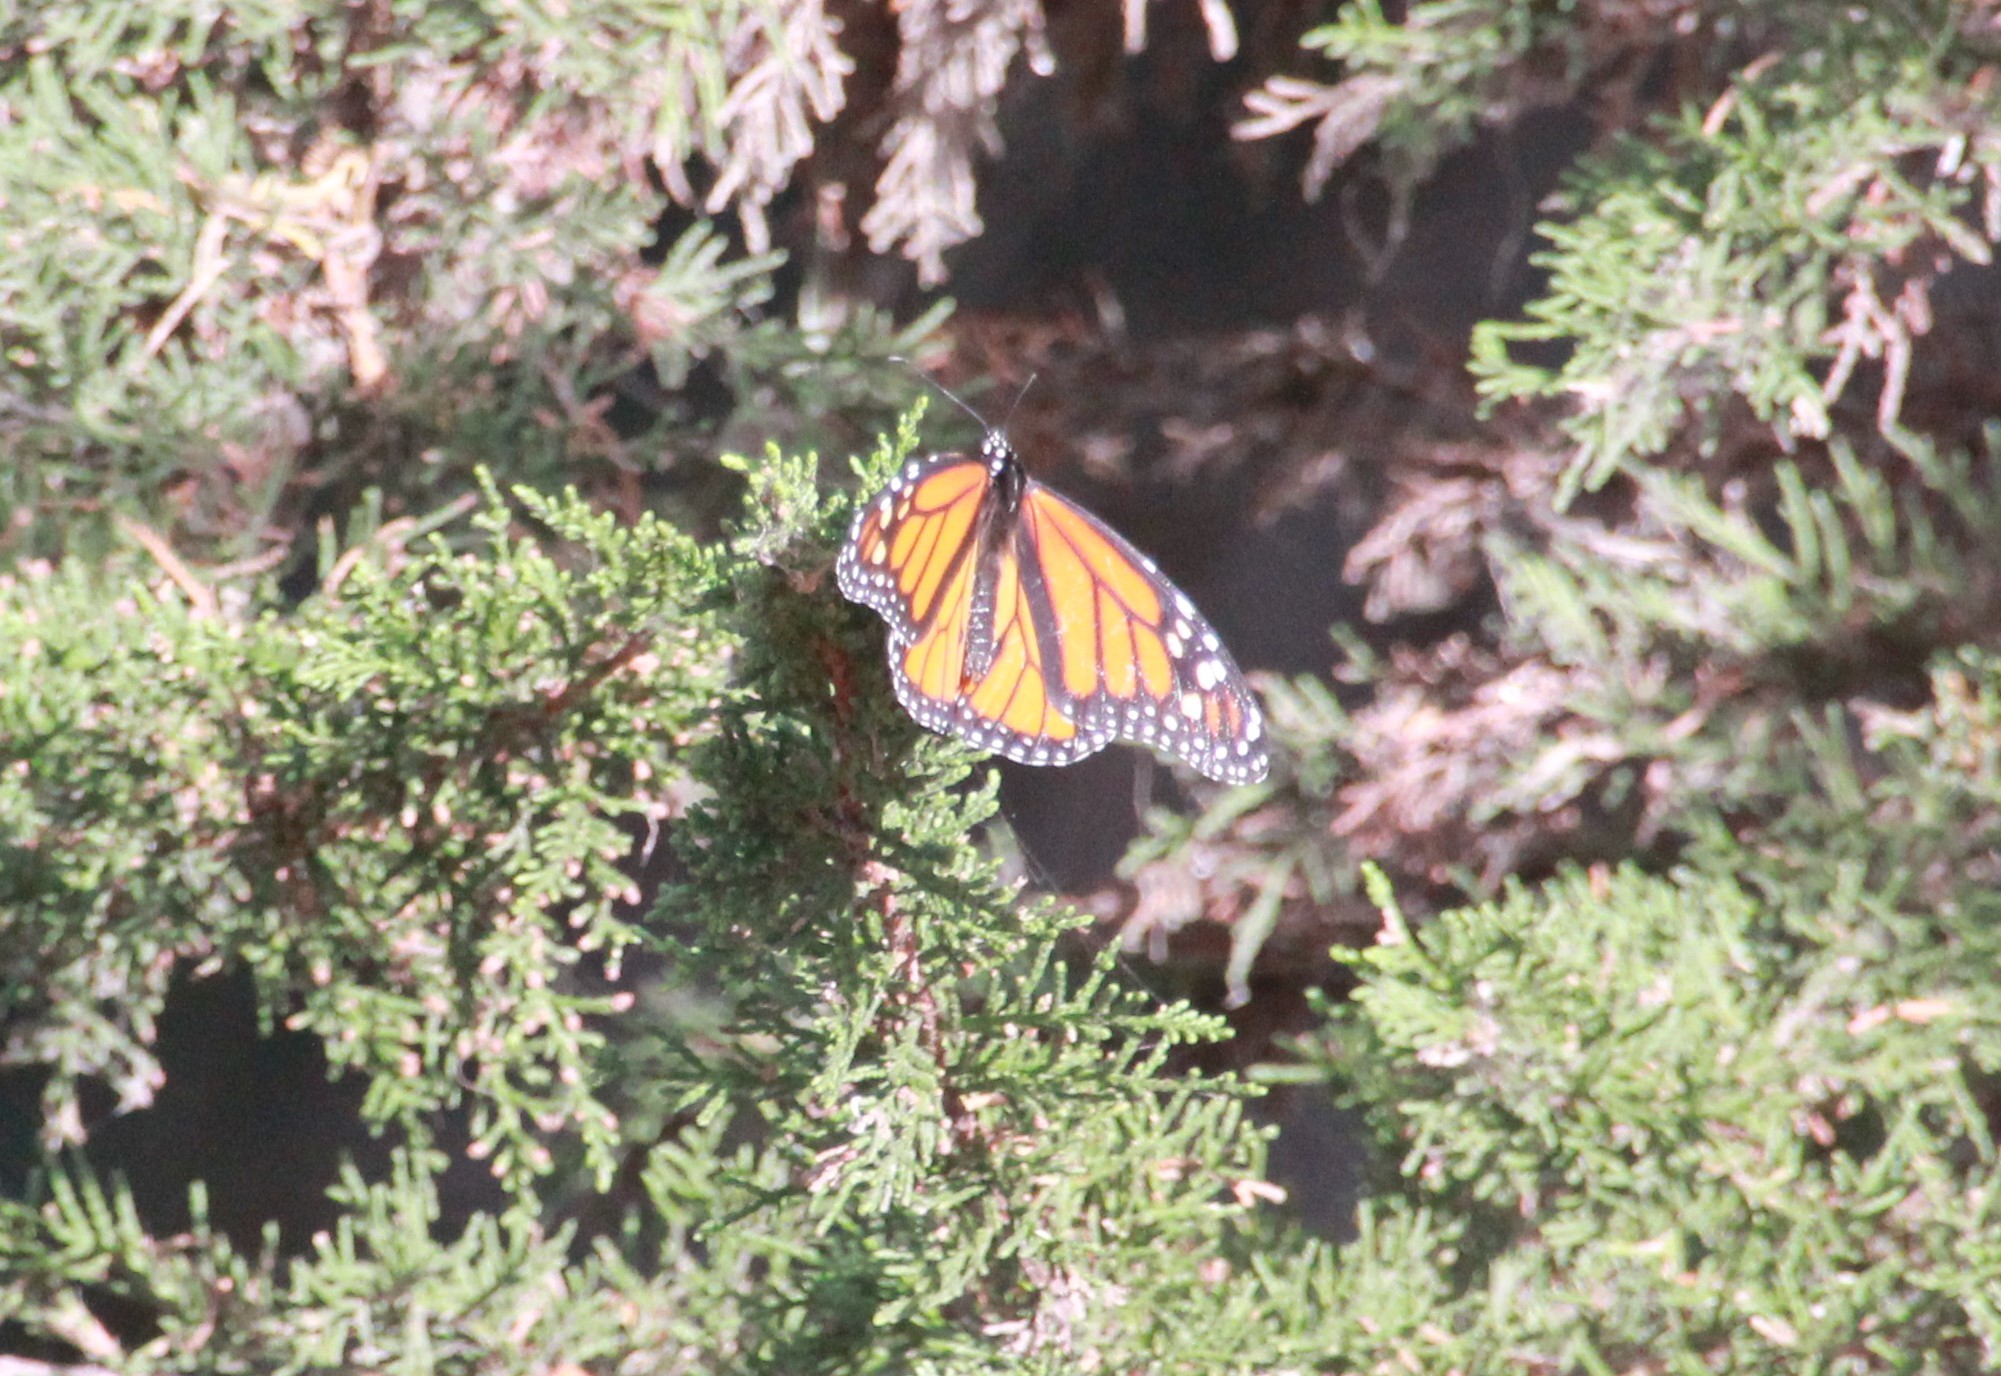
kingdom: Animalia
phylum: Arthropoda
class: Insecta
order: Lepidoptera
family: Nymphalidae
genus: Danaus
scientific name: Danaus plexippus
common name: Monarch
